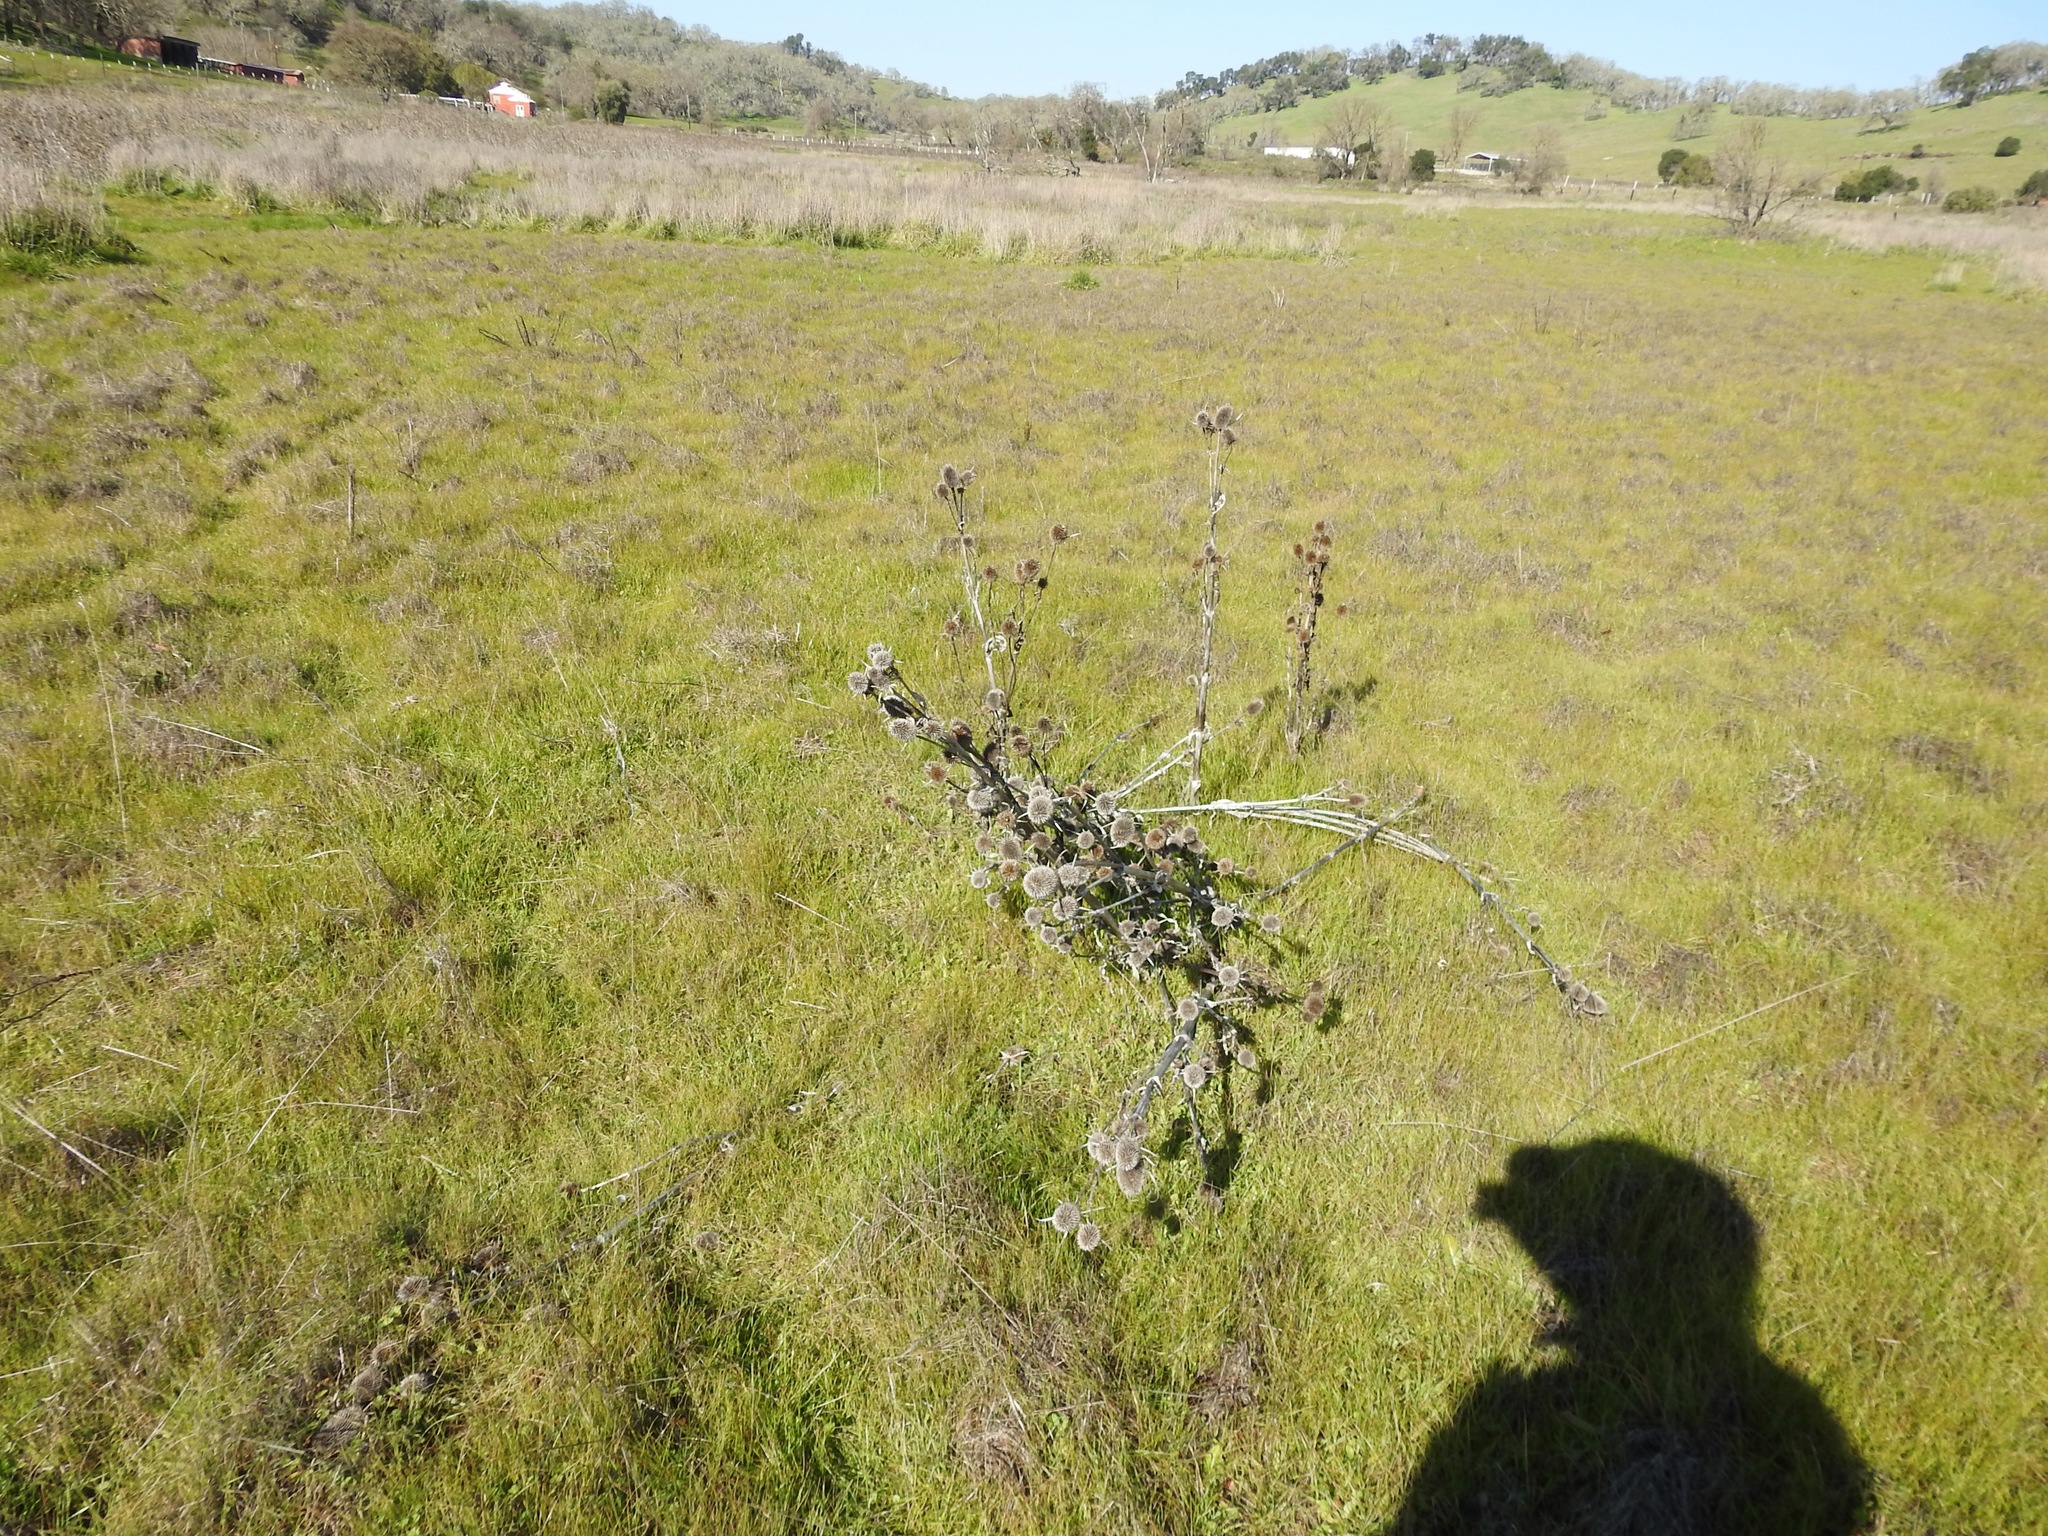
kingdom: Plantae
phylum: Tracheophyta
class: Magnoliopsida
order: Dipsacales
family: Caprifoliaceae
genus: Dipsacus
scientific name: Dipsacus sativus
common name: Fuller's teasel
